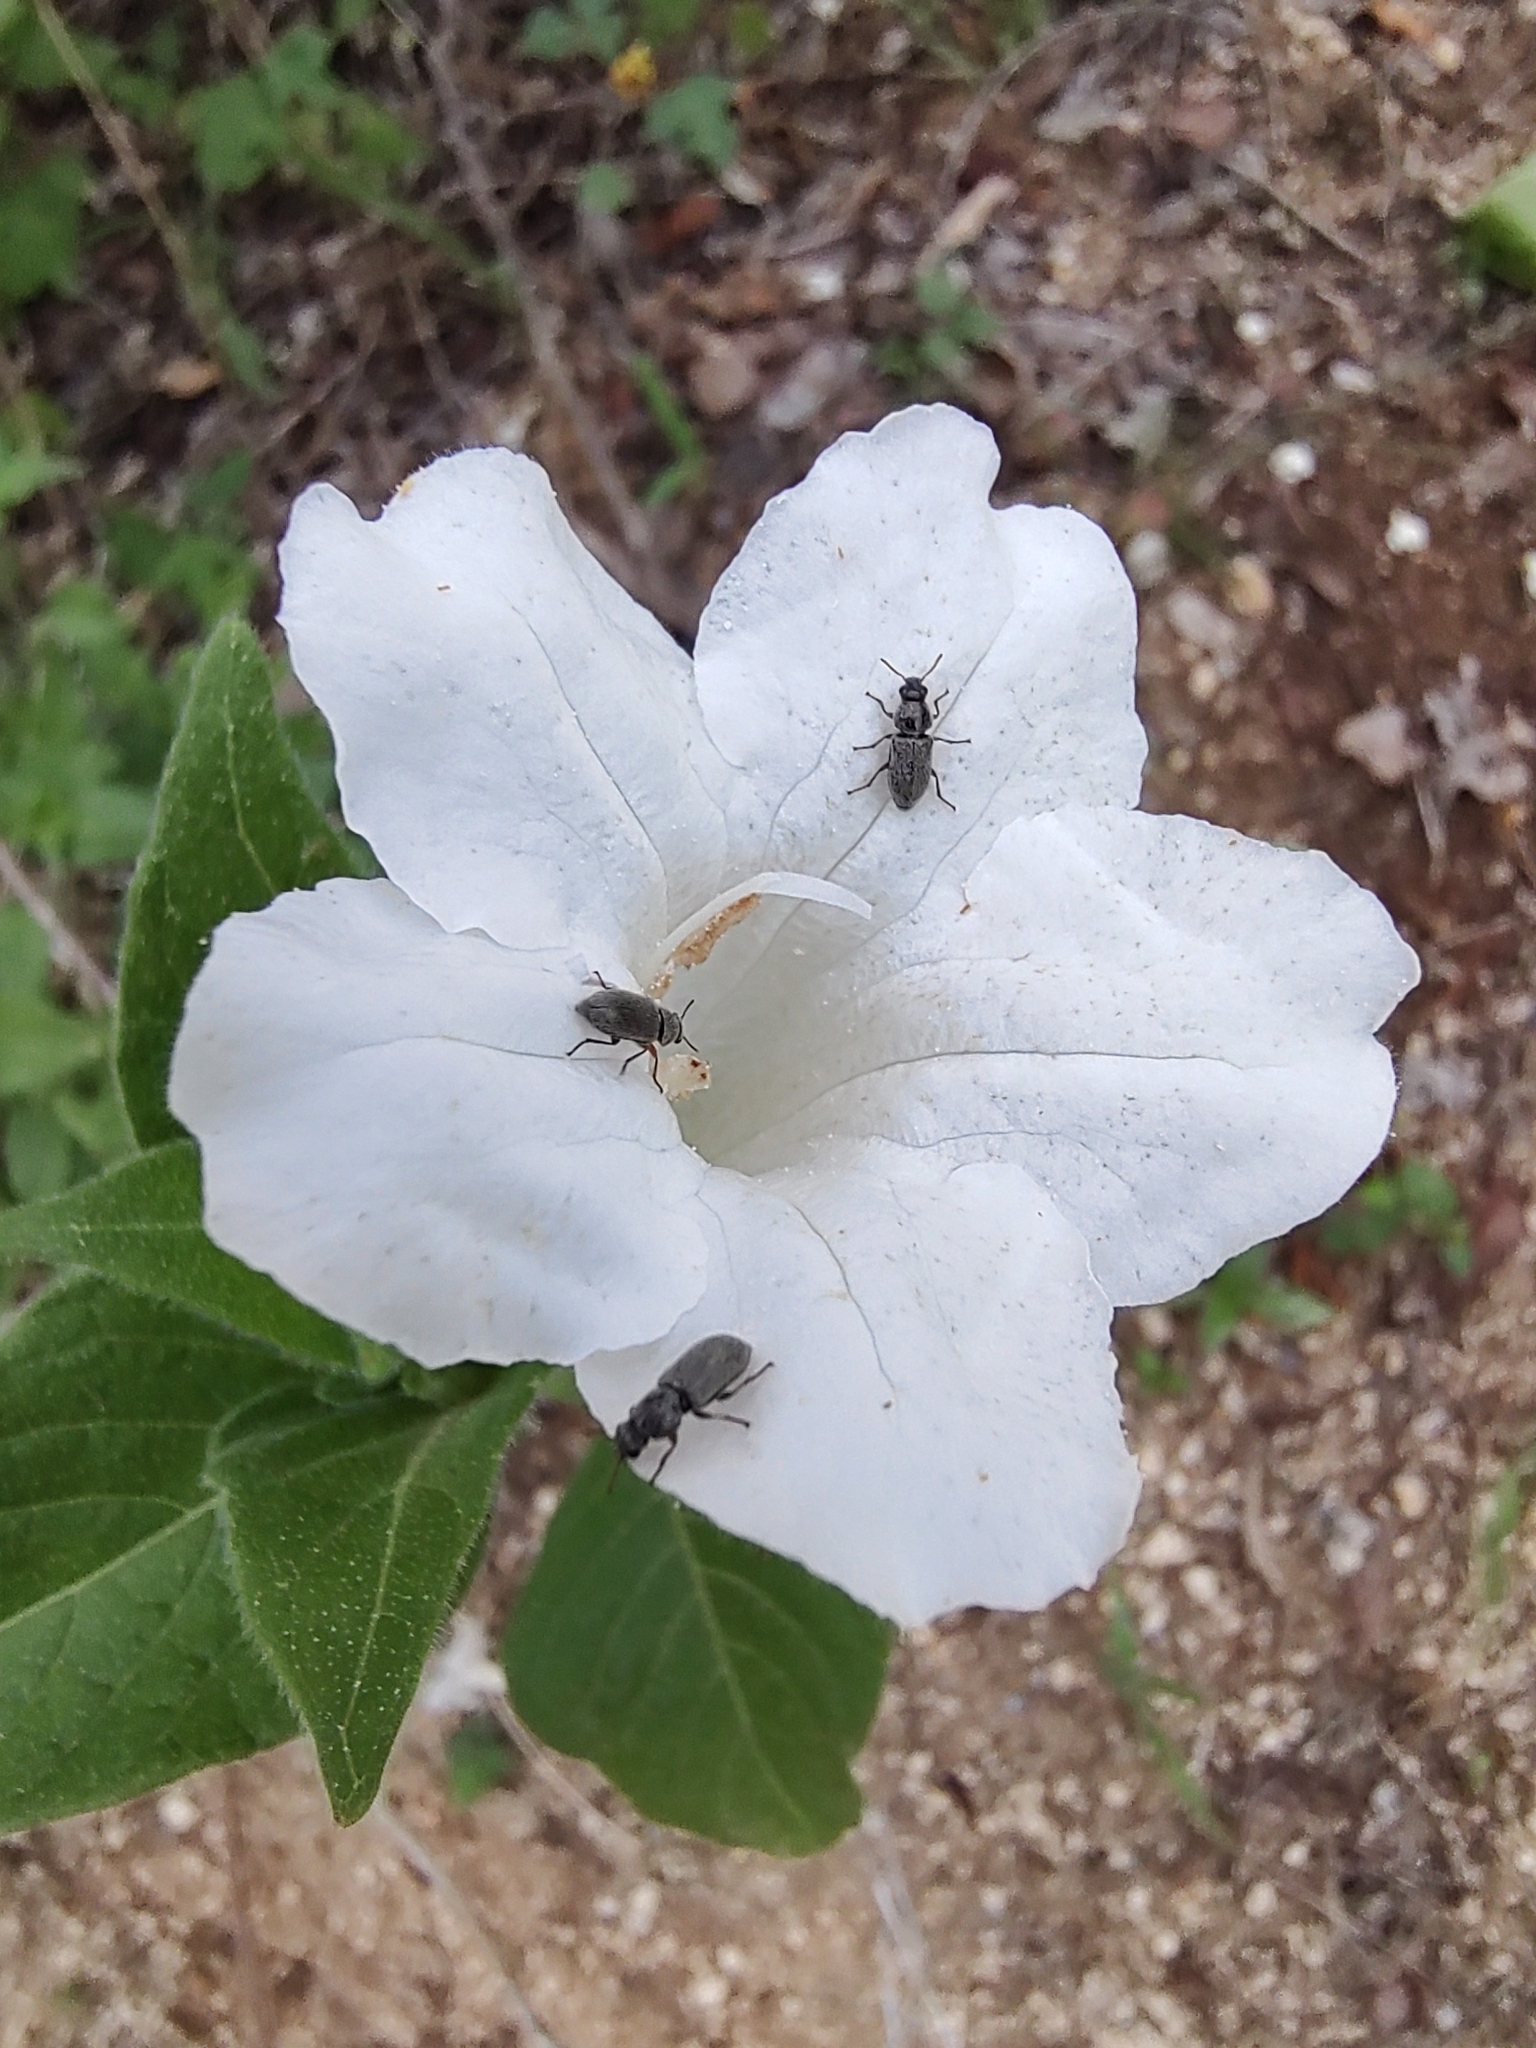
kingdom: Plantae
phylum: Tracheophyta
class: Magnoliopsida
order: Lamiales
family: Acanthaceae
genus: Ruellia
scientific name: Ruellia leucantha
